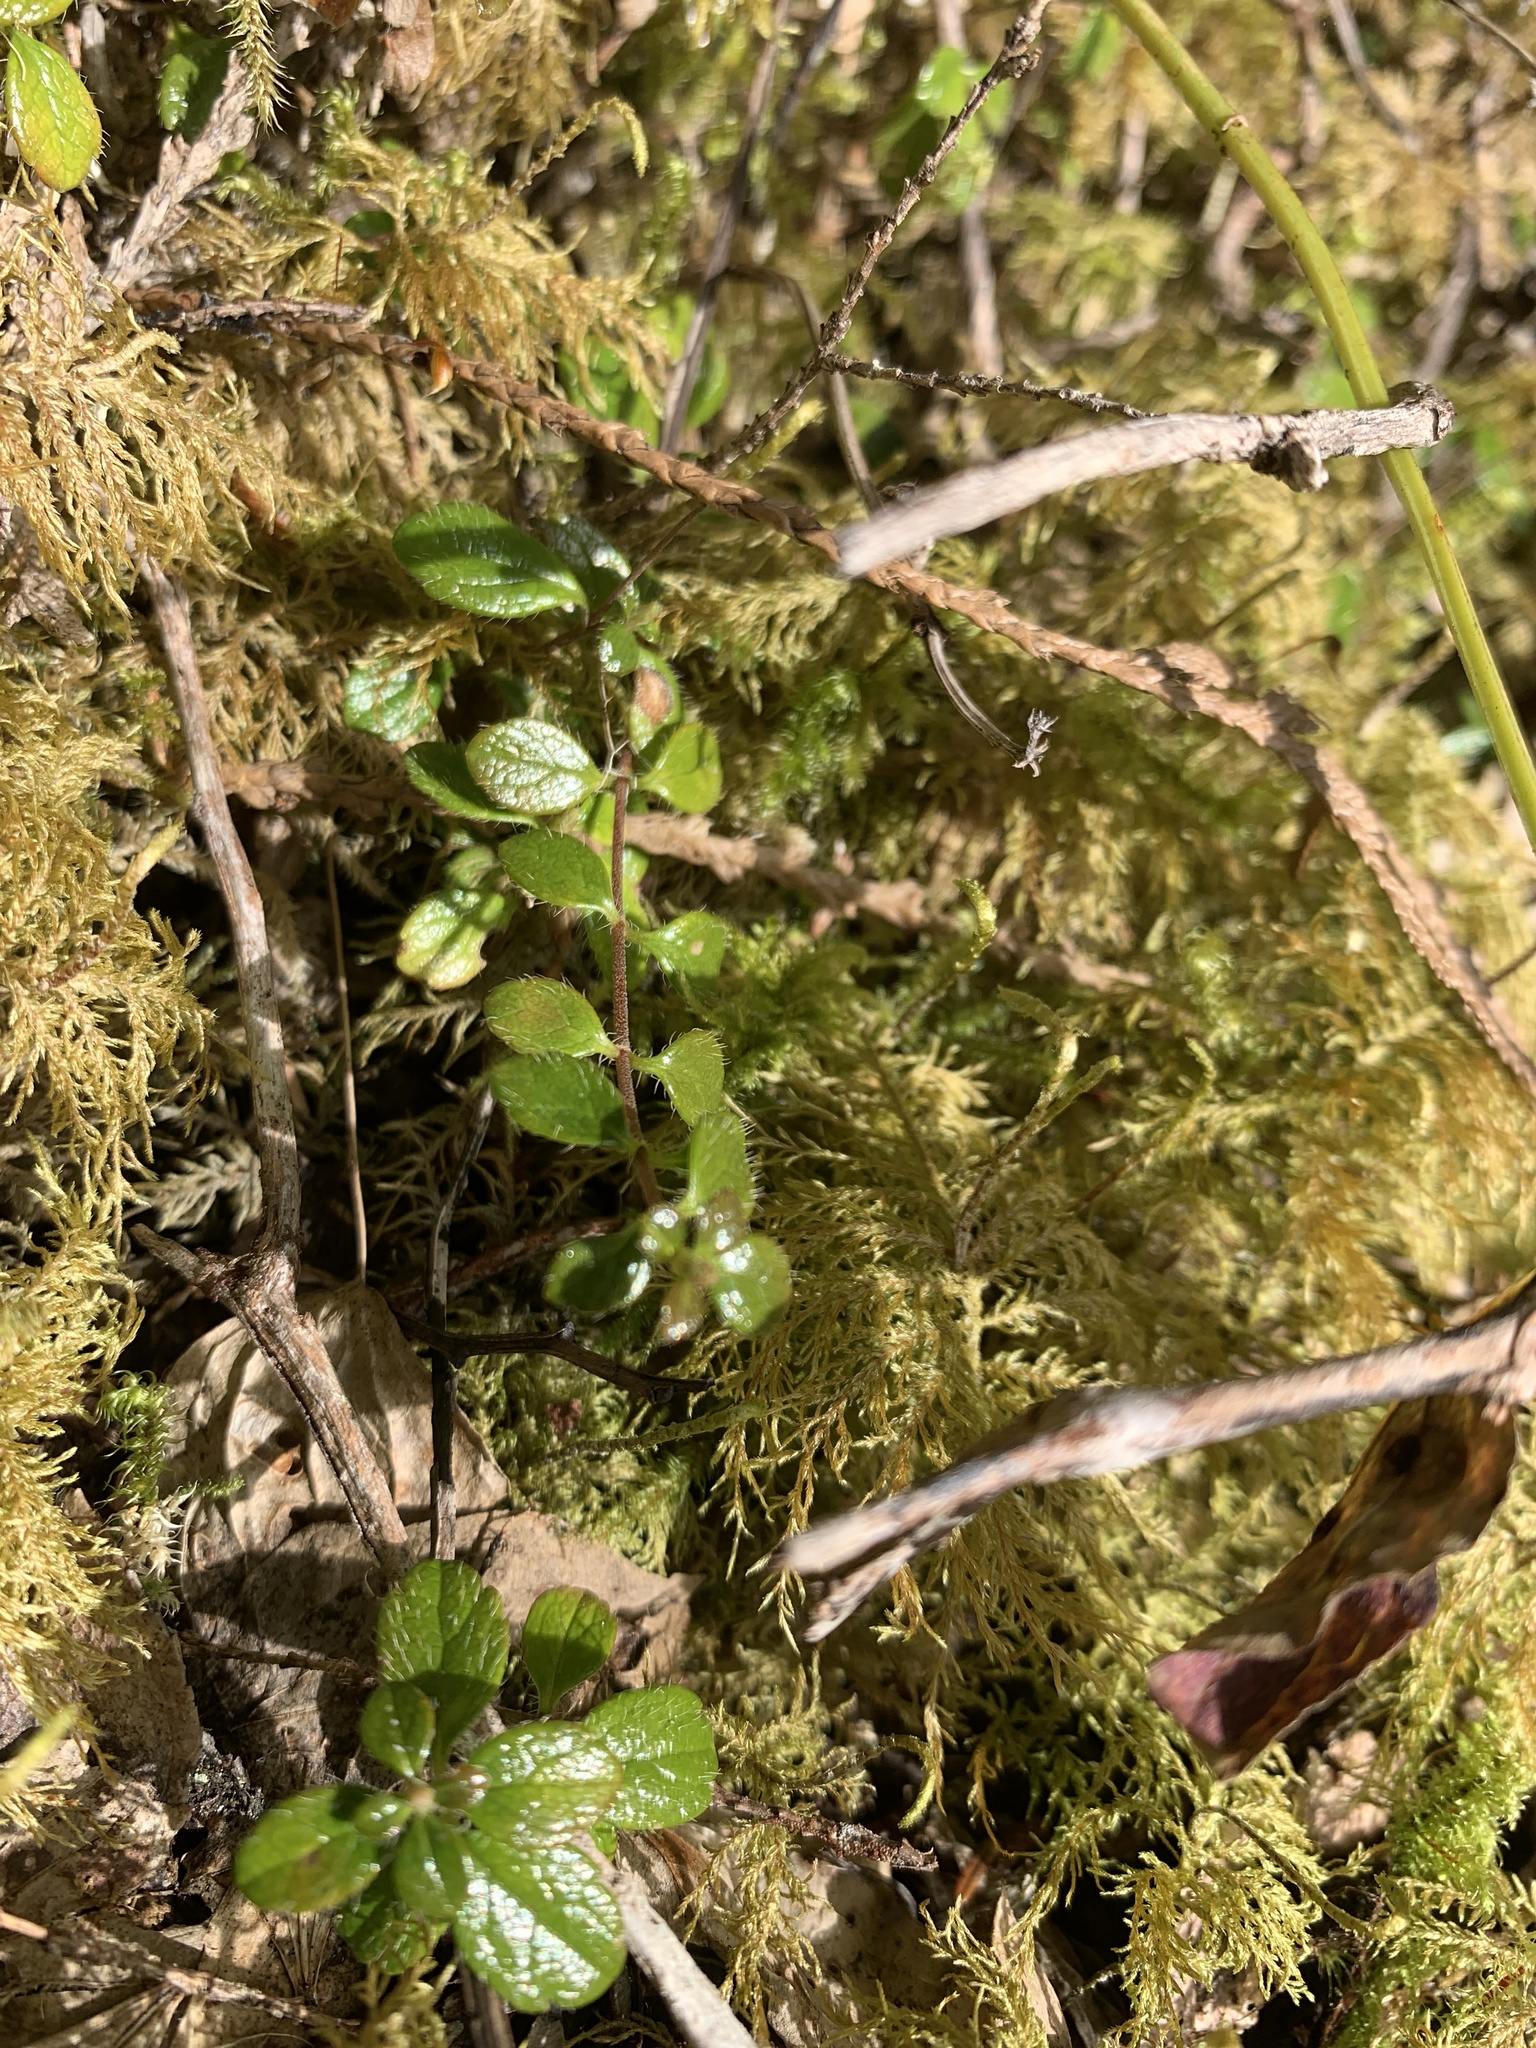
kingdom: Plantae
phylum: Tracheophyta
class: Magnoliopsida
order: Dipsacales
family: Caprifoliaceae
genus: Linnaea
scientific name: Linnaea borealis
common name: Twinflower
